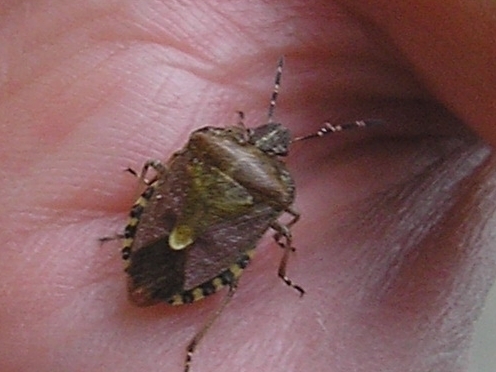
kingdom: Animalia
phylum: Arthropoda
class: Insecta
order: Hemiptera
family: Pentatomidae
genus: Dolycoris
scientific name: Dolycoris baccarum
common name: Sloe bug
